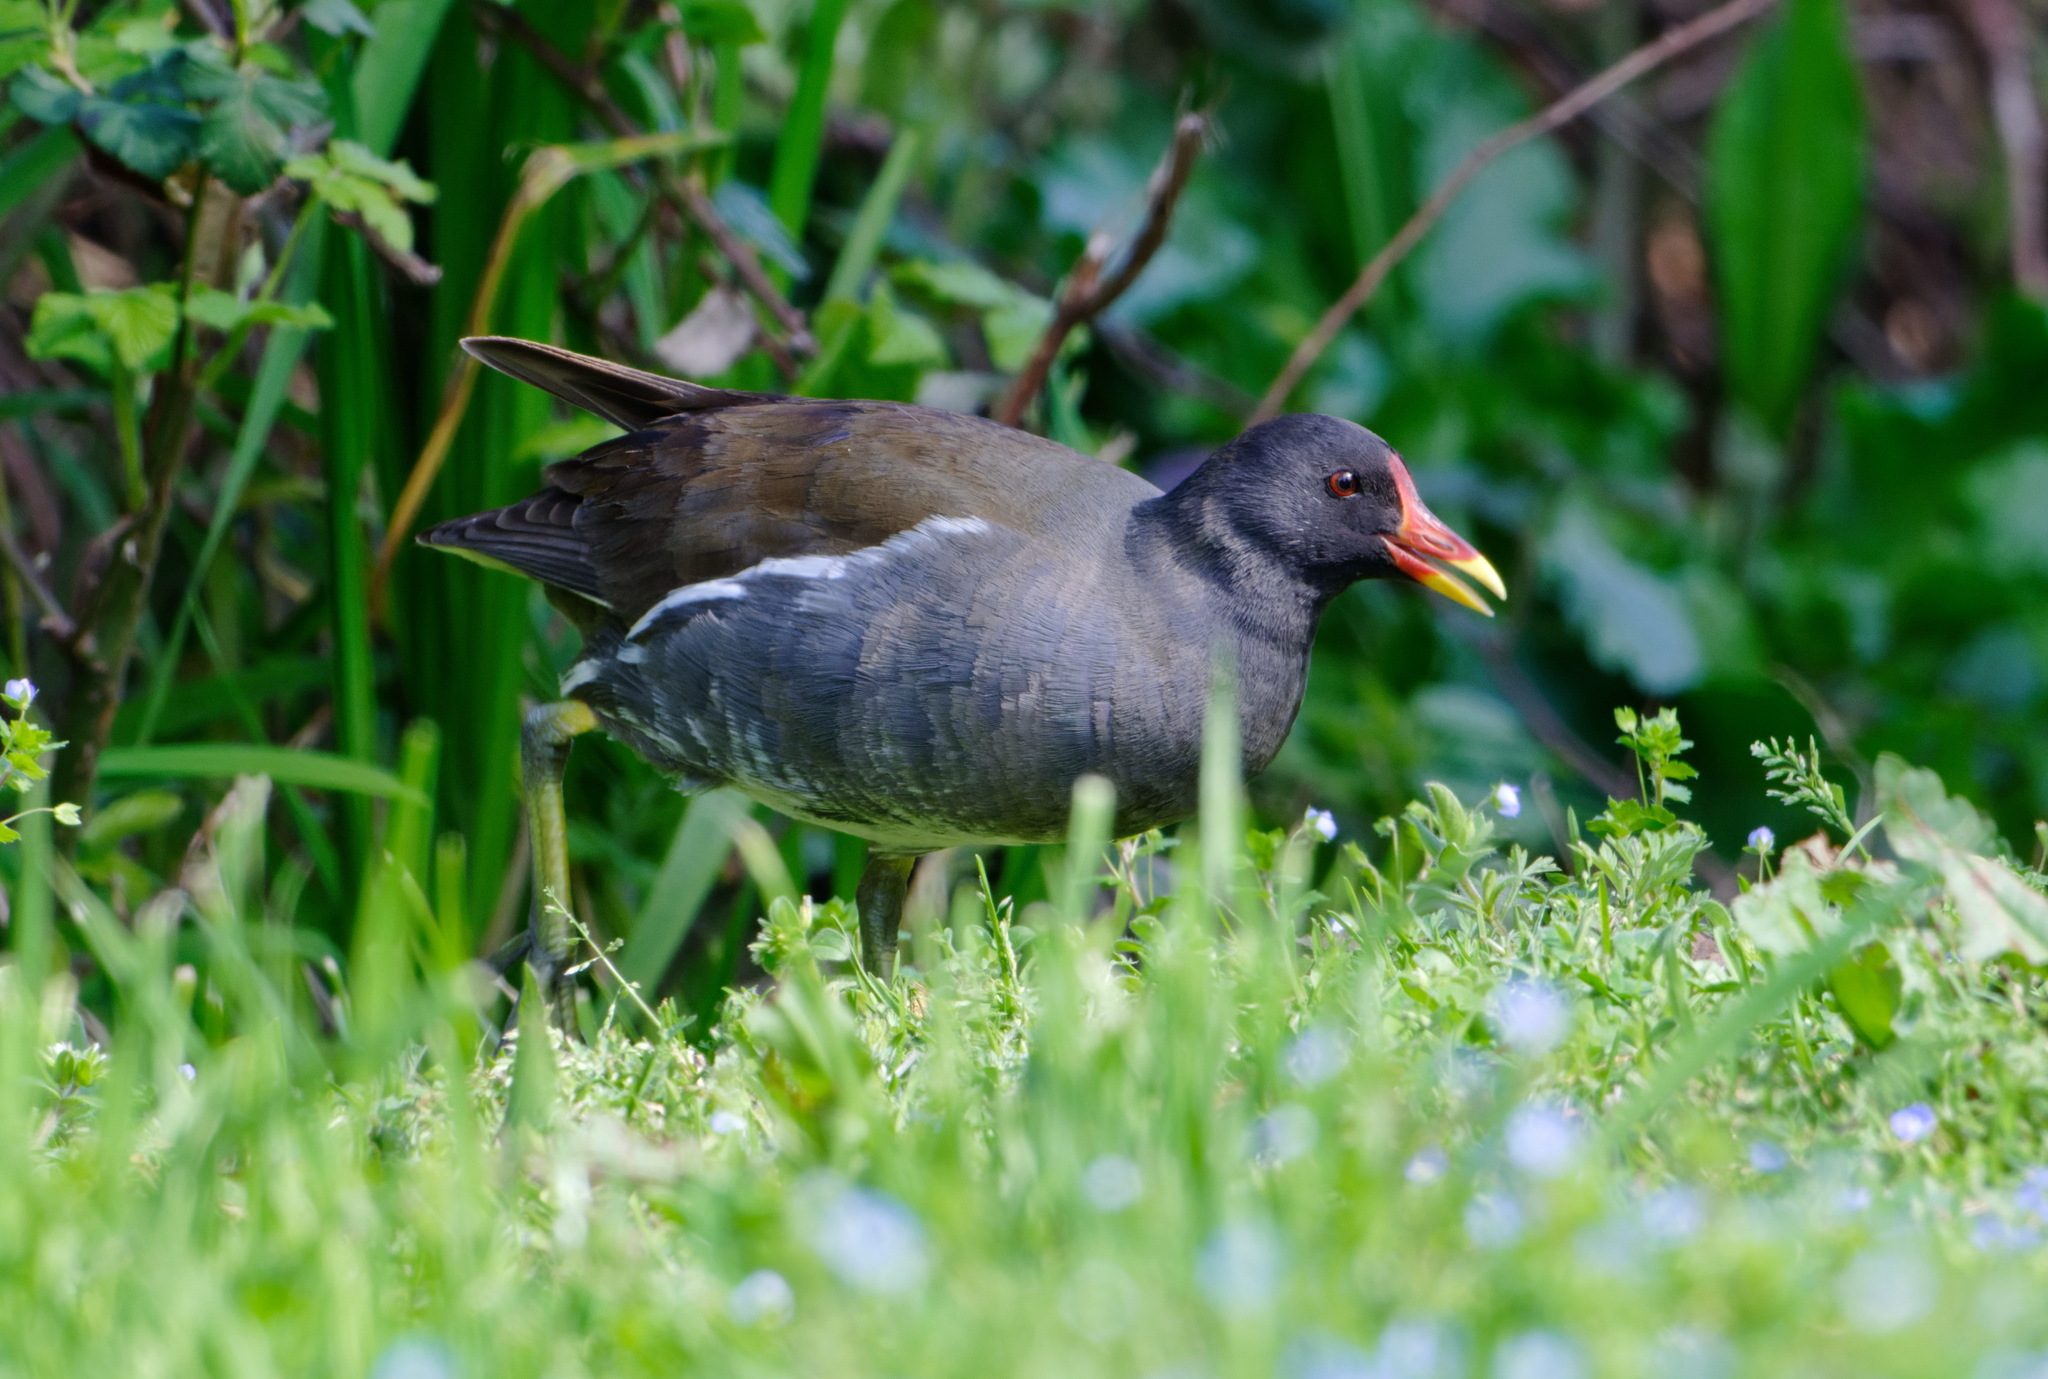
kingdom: Animalia
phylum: Chordata
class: Aves
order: Gruiformes
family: Rallidae
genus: Gallinula
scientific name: Gallinula chloropus
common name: Common moorhen
